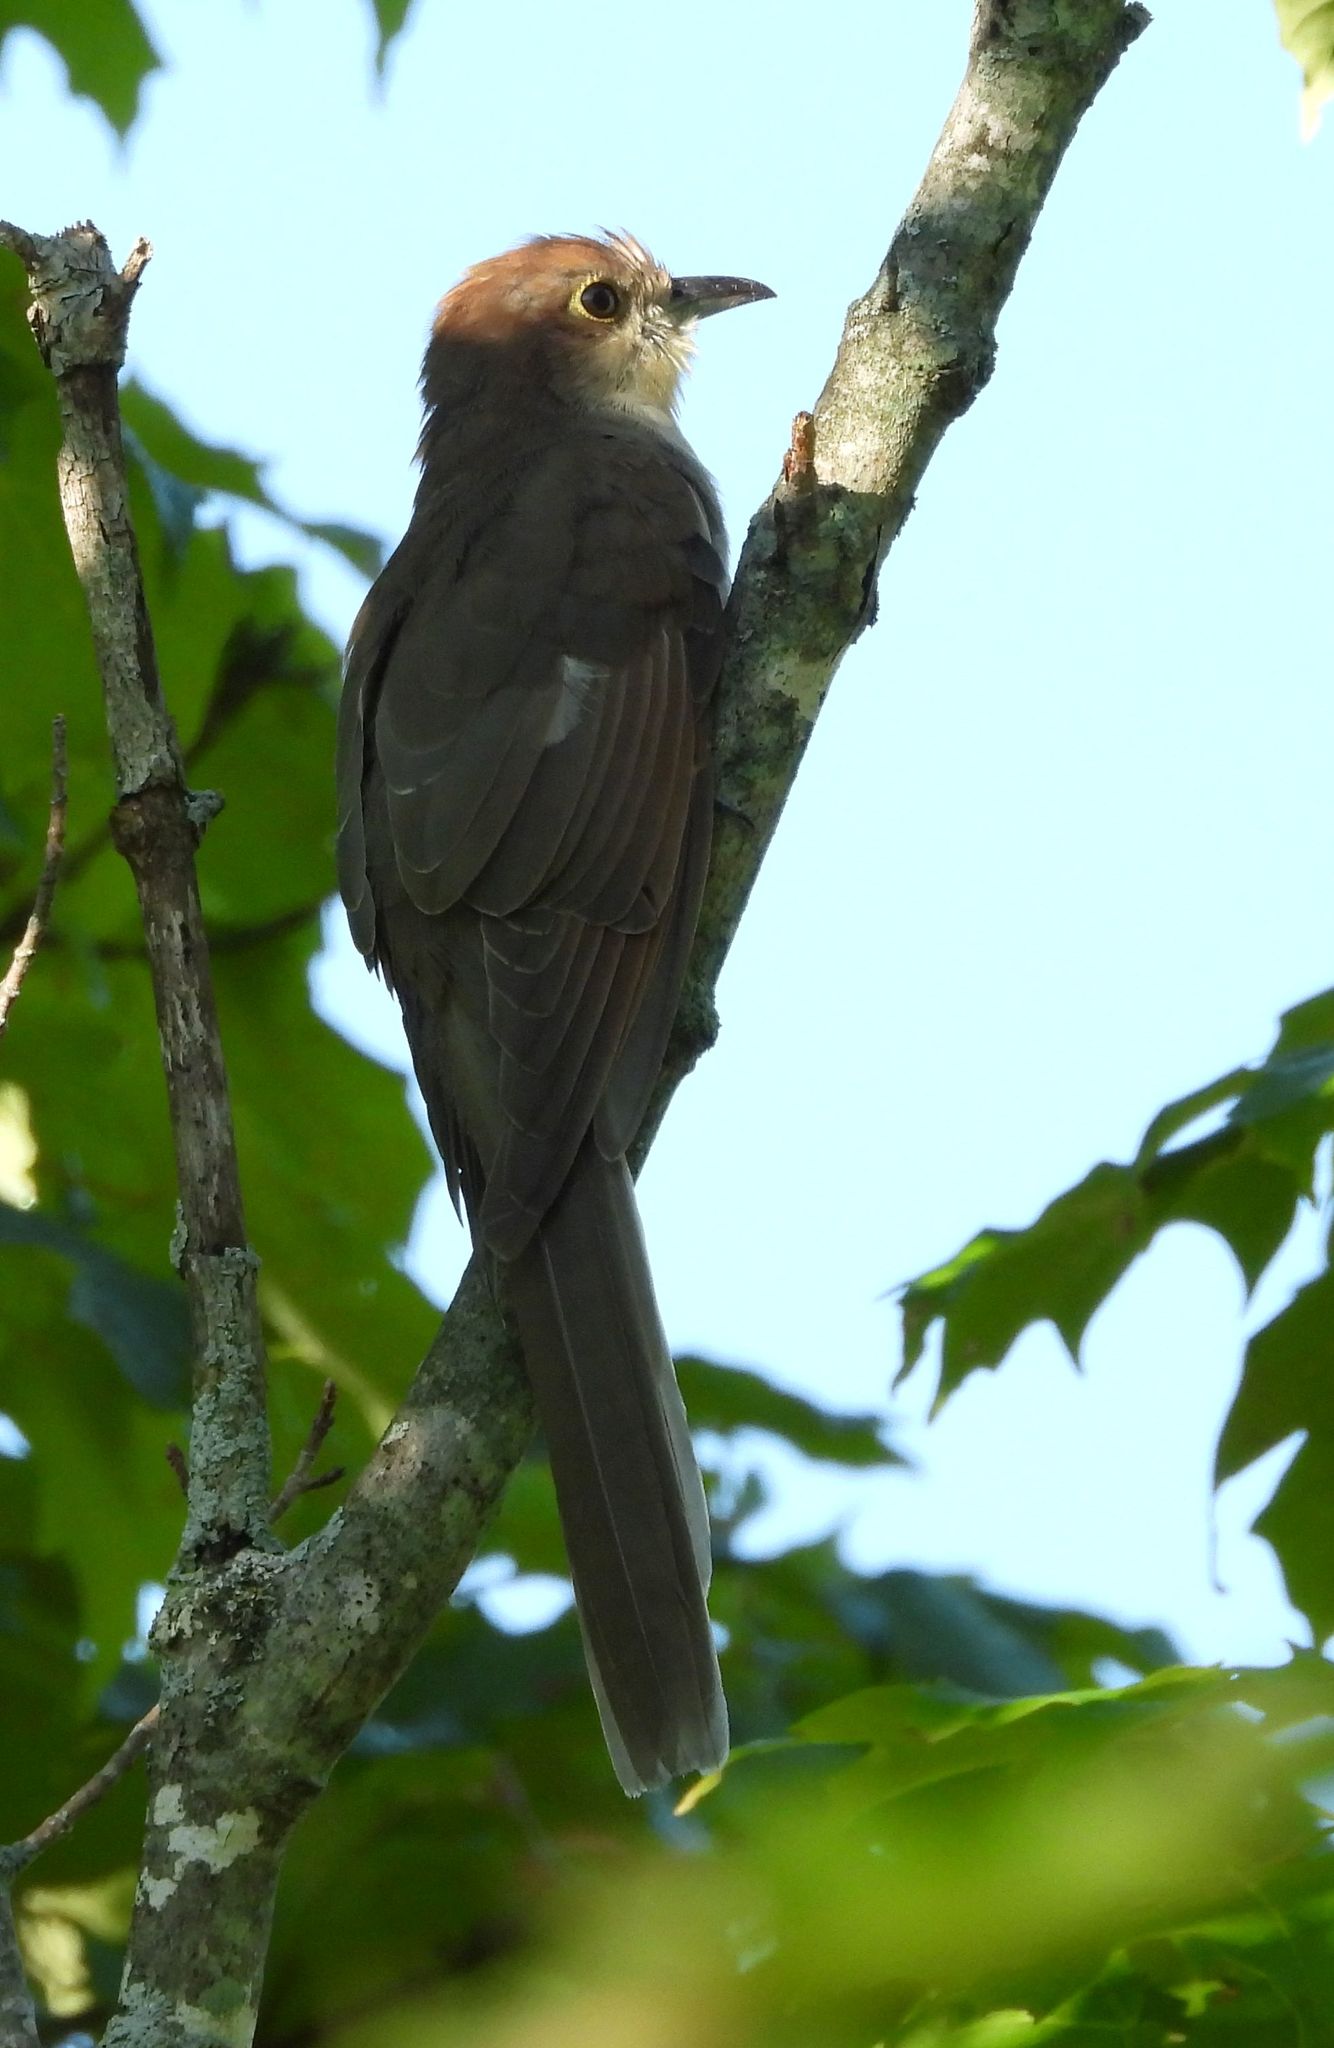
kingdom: Animalia
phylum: Chordata
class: Aves
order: Cuculiformes
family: Cuculidae
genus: Coccyzus
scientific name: Coccyzus erythropthalmus
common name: Black-billed cuckoo
